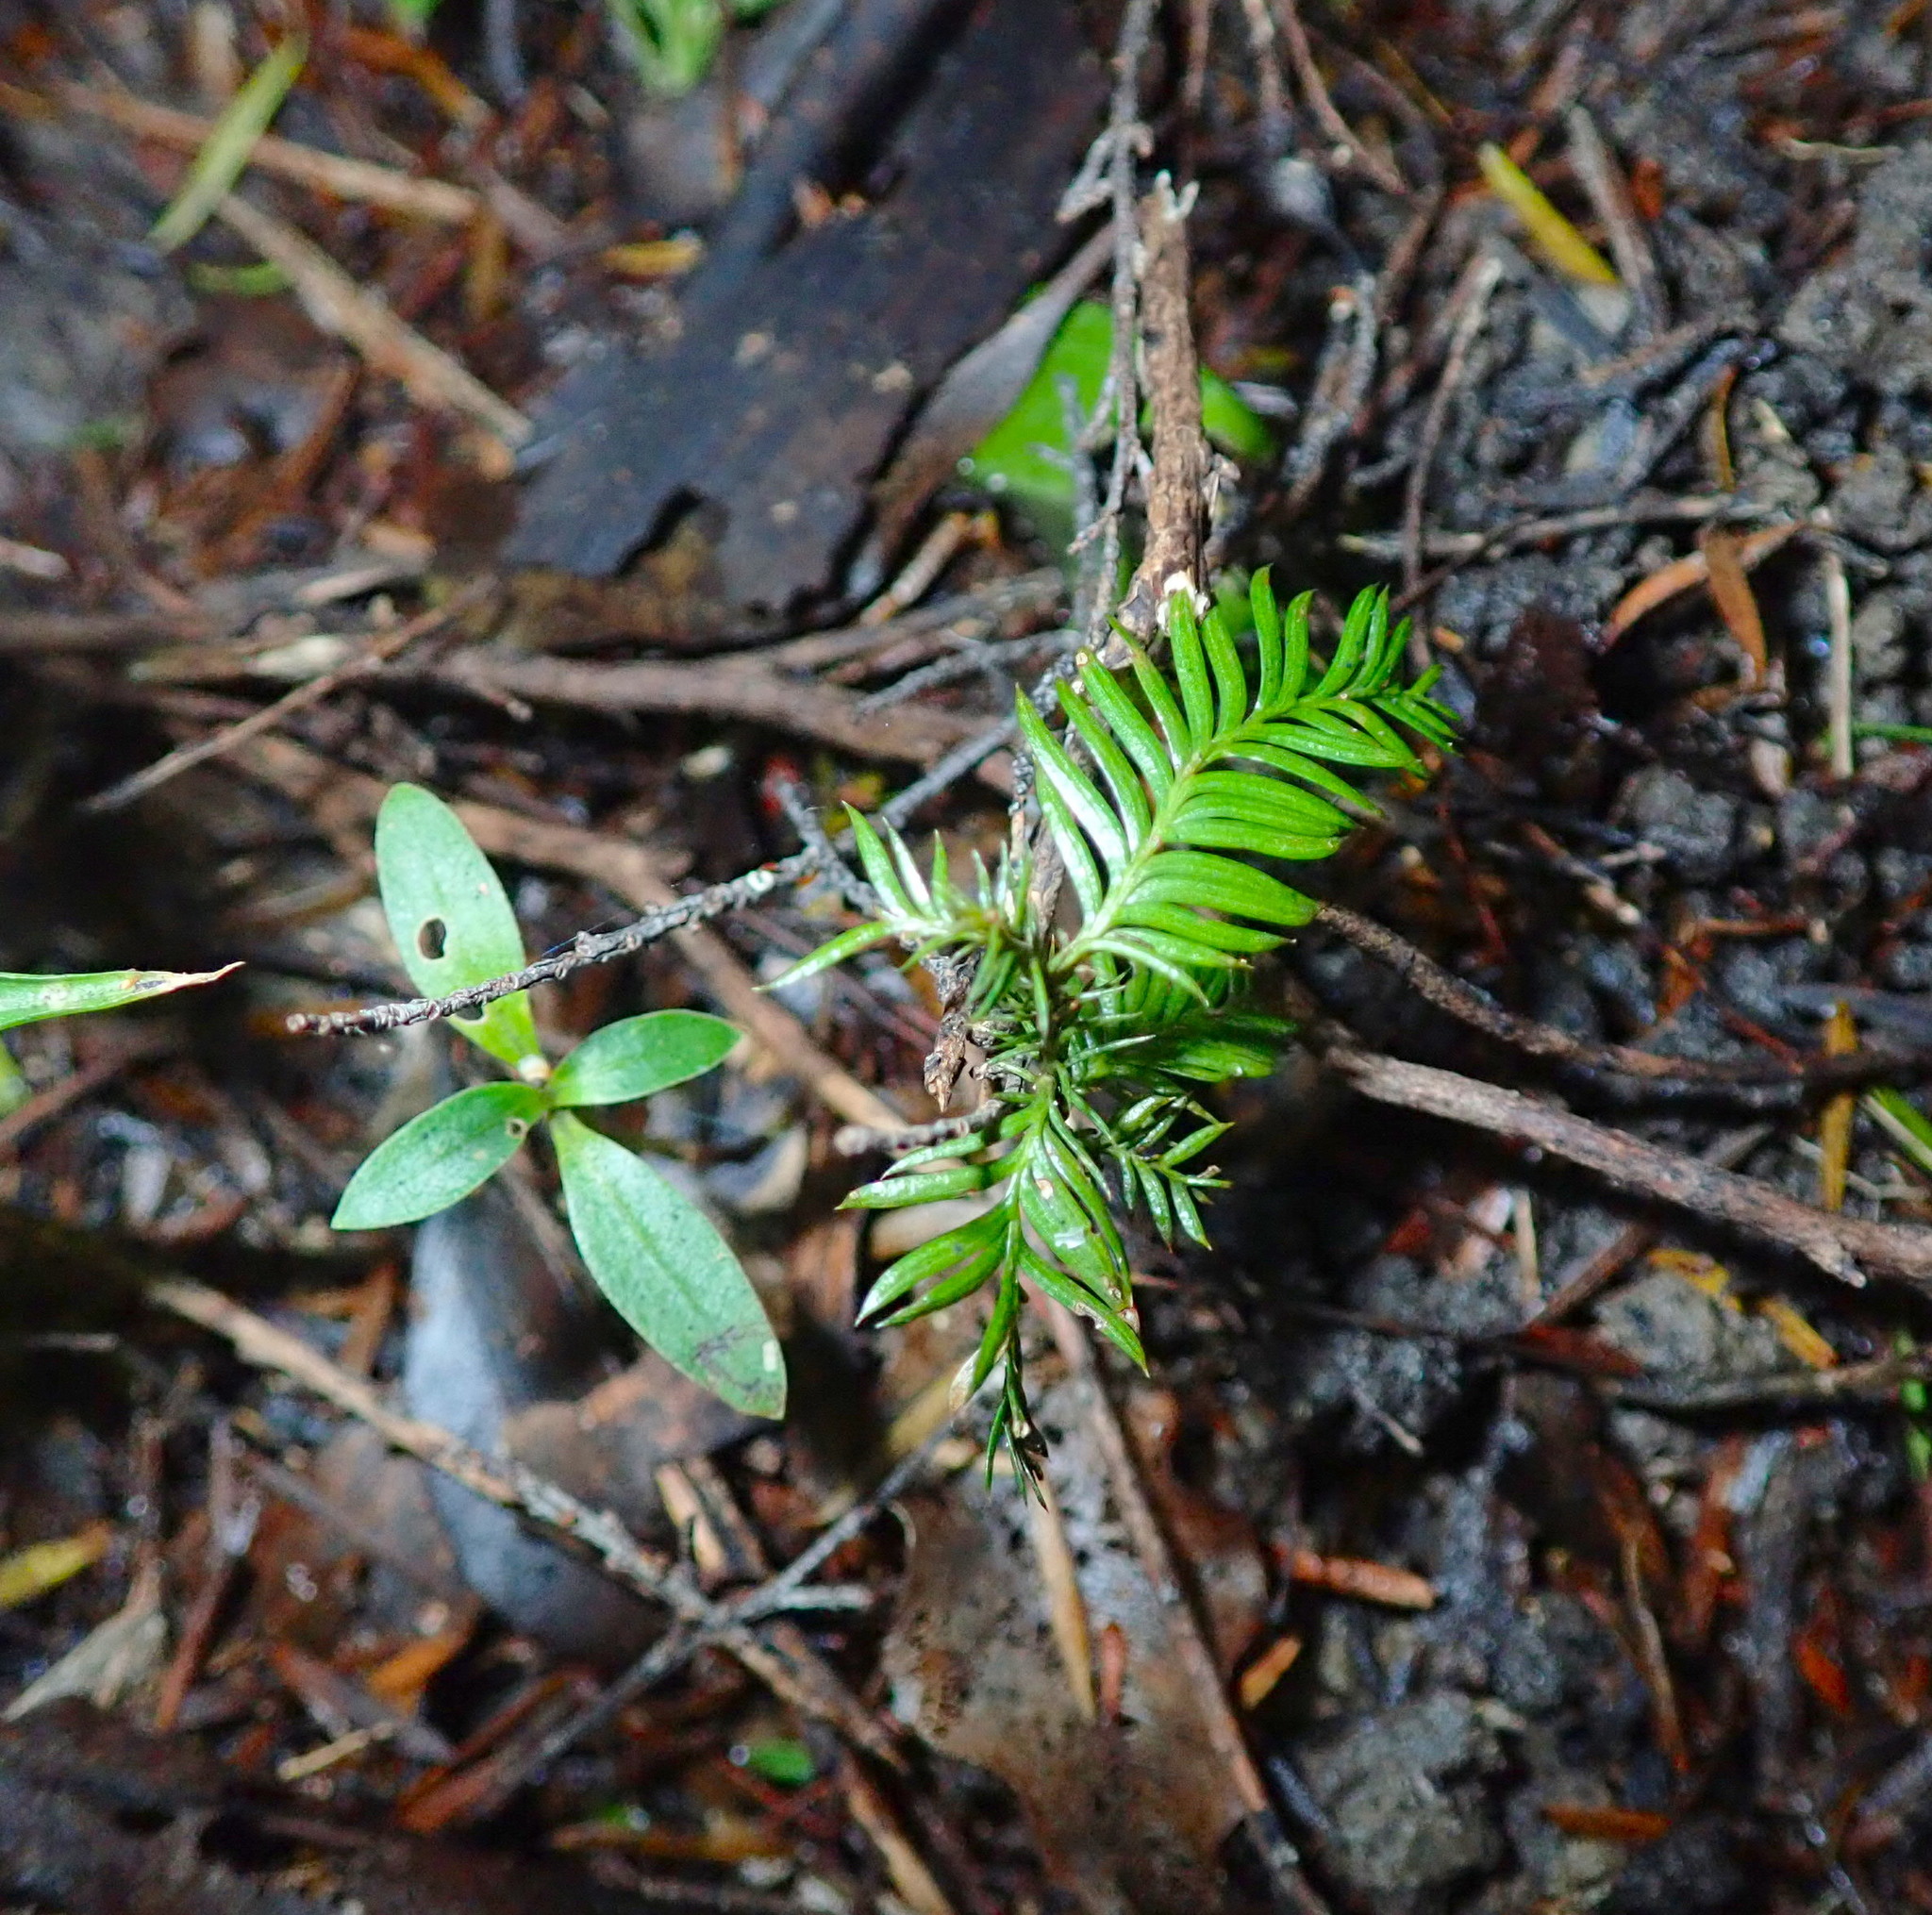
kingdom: Plantae
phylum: Tracheophyta
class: Pinopsida
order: Pinales
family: Podocarpaceae
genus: Dacrycarpus
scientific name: Dacrycarpus dacrydioides
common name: White pine
